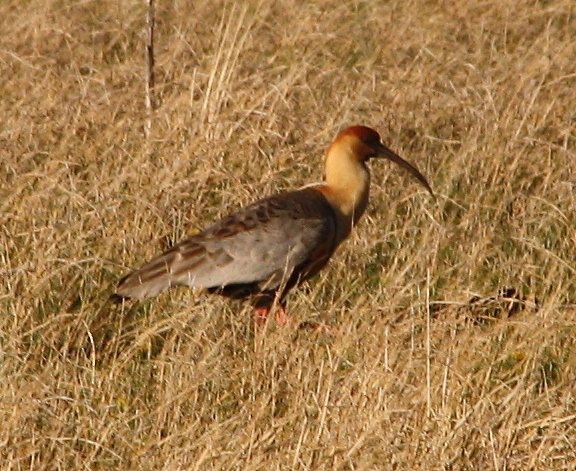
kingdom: Animalia
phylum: Chordata
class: Aves
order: Pelecaniformes
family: Threskiornithidae
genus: Theristicus
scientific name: Theristicus melanopis
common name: Black-faced ibis
